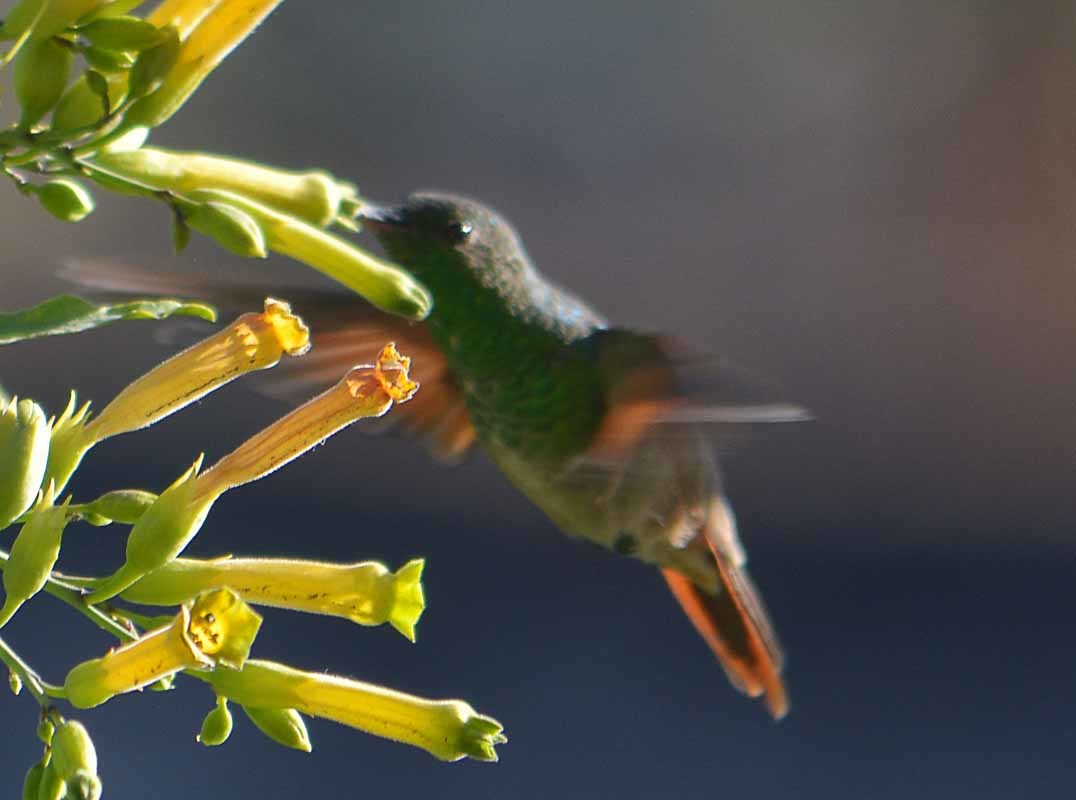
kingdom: Animalia
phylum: Chordata
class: Aves
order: Apodiformes
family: Trochilidae
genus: Saucerottia
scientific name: Saucerottia beryllina
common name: Berylline hummingbird
